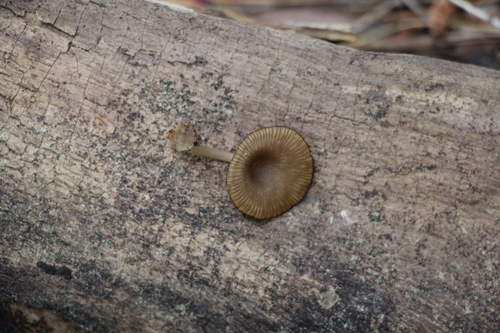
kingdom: Fungi
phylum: Basidiomycota
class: Agaricomycetes
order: Agaricales
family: Hygrophoraceae
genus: Arrhenia
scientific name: Arrhenia epichysium
